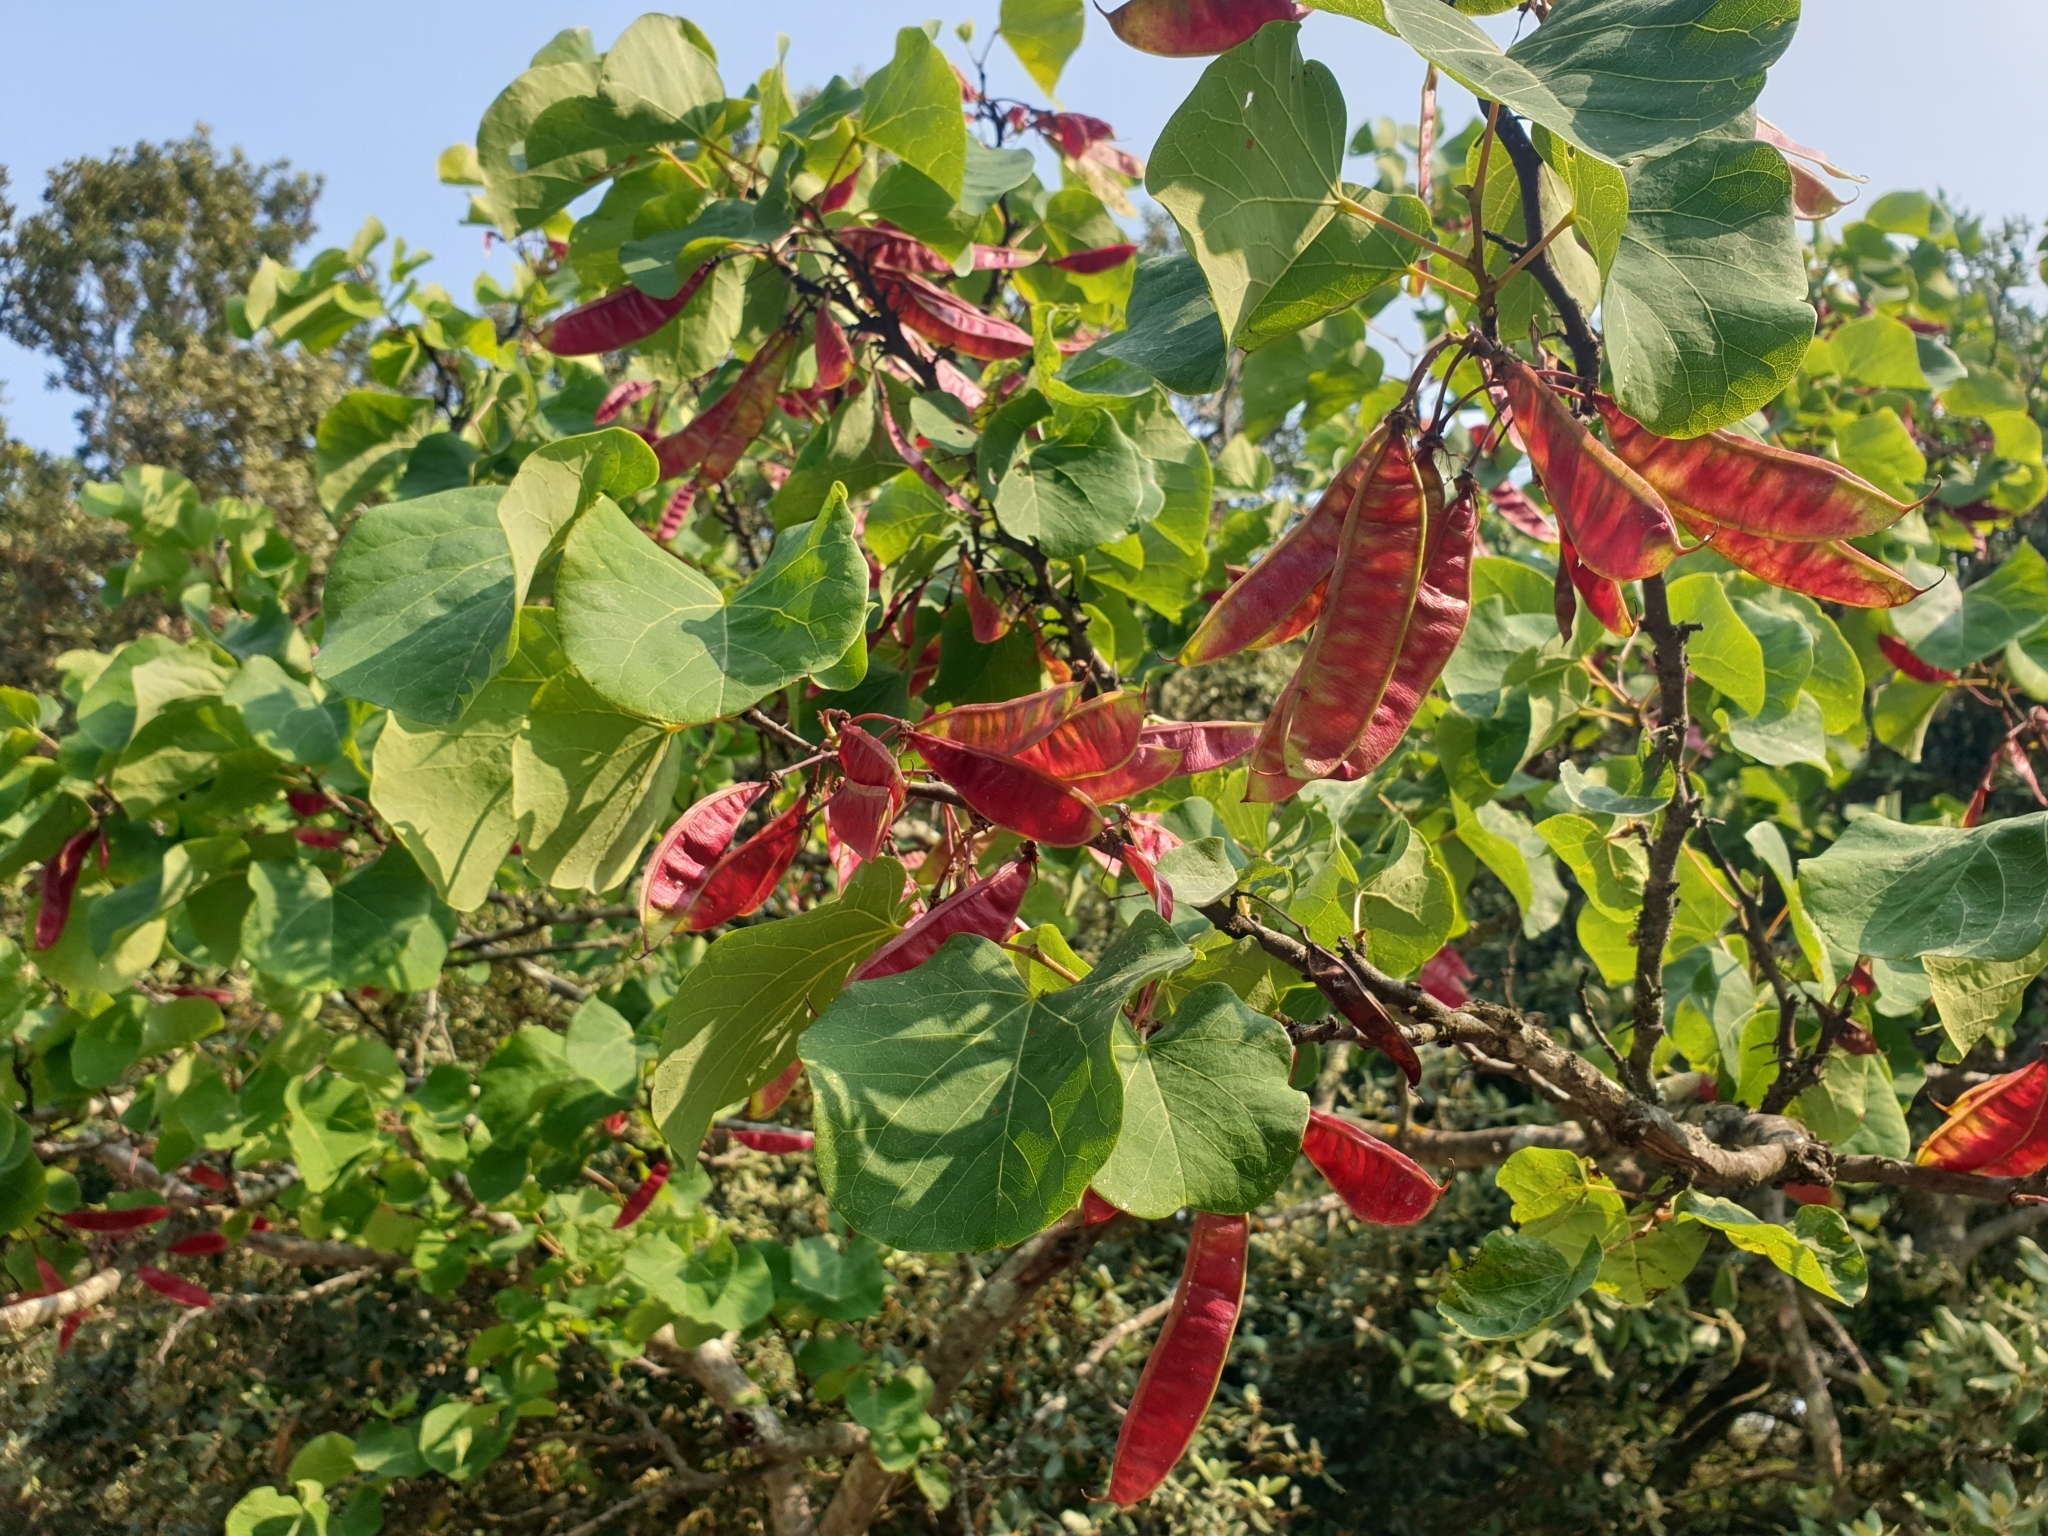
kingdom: Plantae
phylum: Tracheophyta
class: Magnoliopsida
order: Fabales
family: Fabaceae
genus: Cercis
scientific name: Cercis siliquastrum
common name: Judas tree
